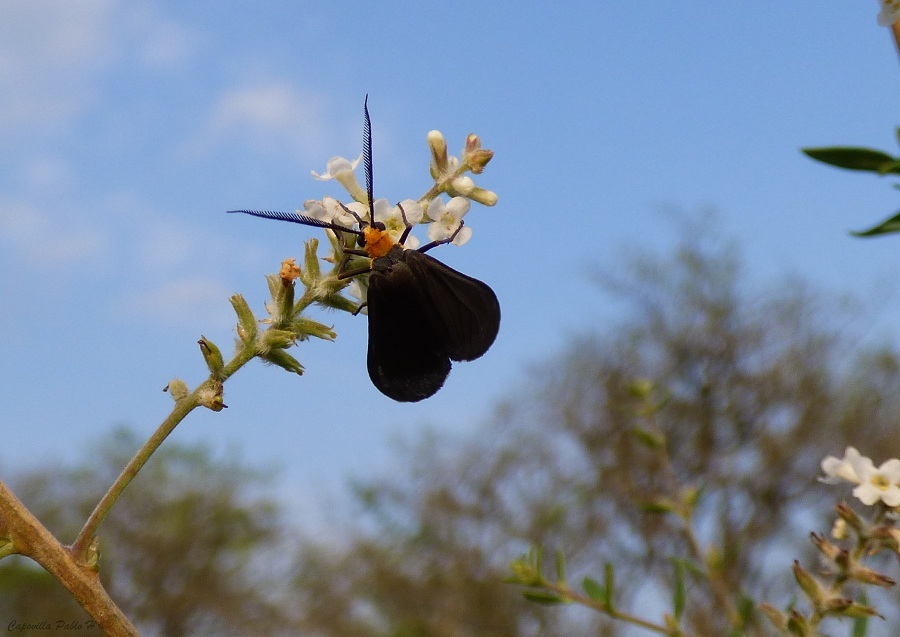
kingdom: Animalia
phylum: Arthropoda
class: Insecta
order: Lepidoptera
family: Erebidae
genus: Ctenucha
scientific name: Ctenucha rubriceps
